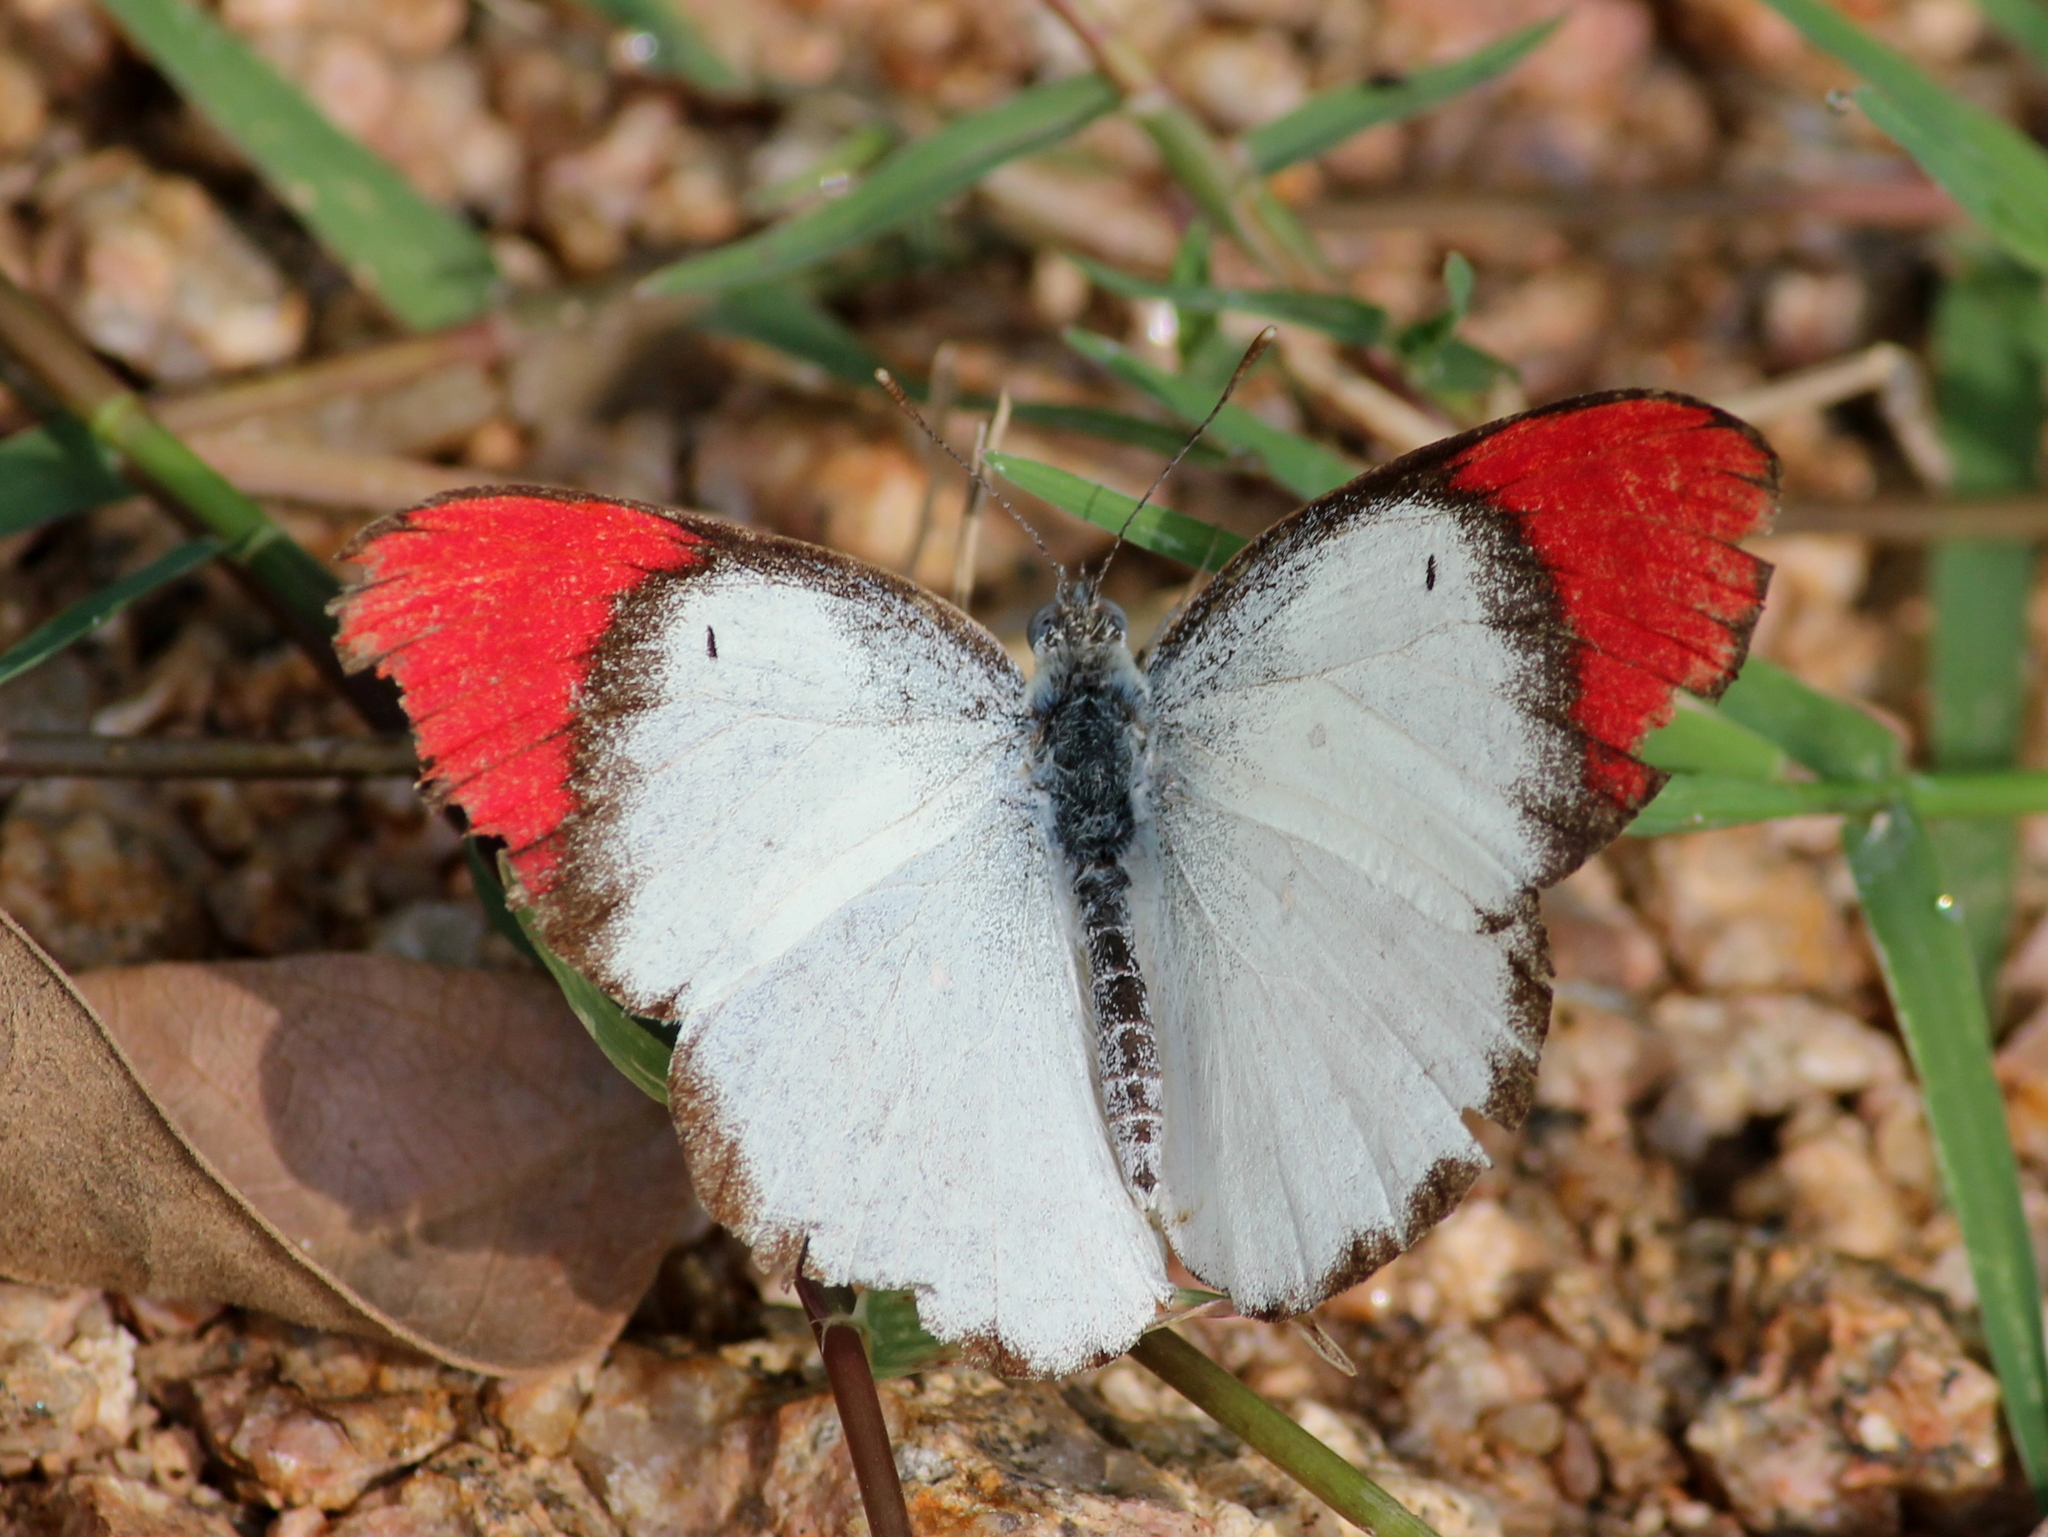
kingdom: Animalia
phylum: Arthropoda
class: Insecta
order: Lepidoptera
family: Pieridae
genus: Colotis
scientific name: Colotis danae
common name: Crimson tip
